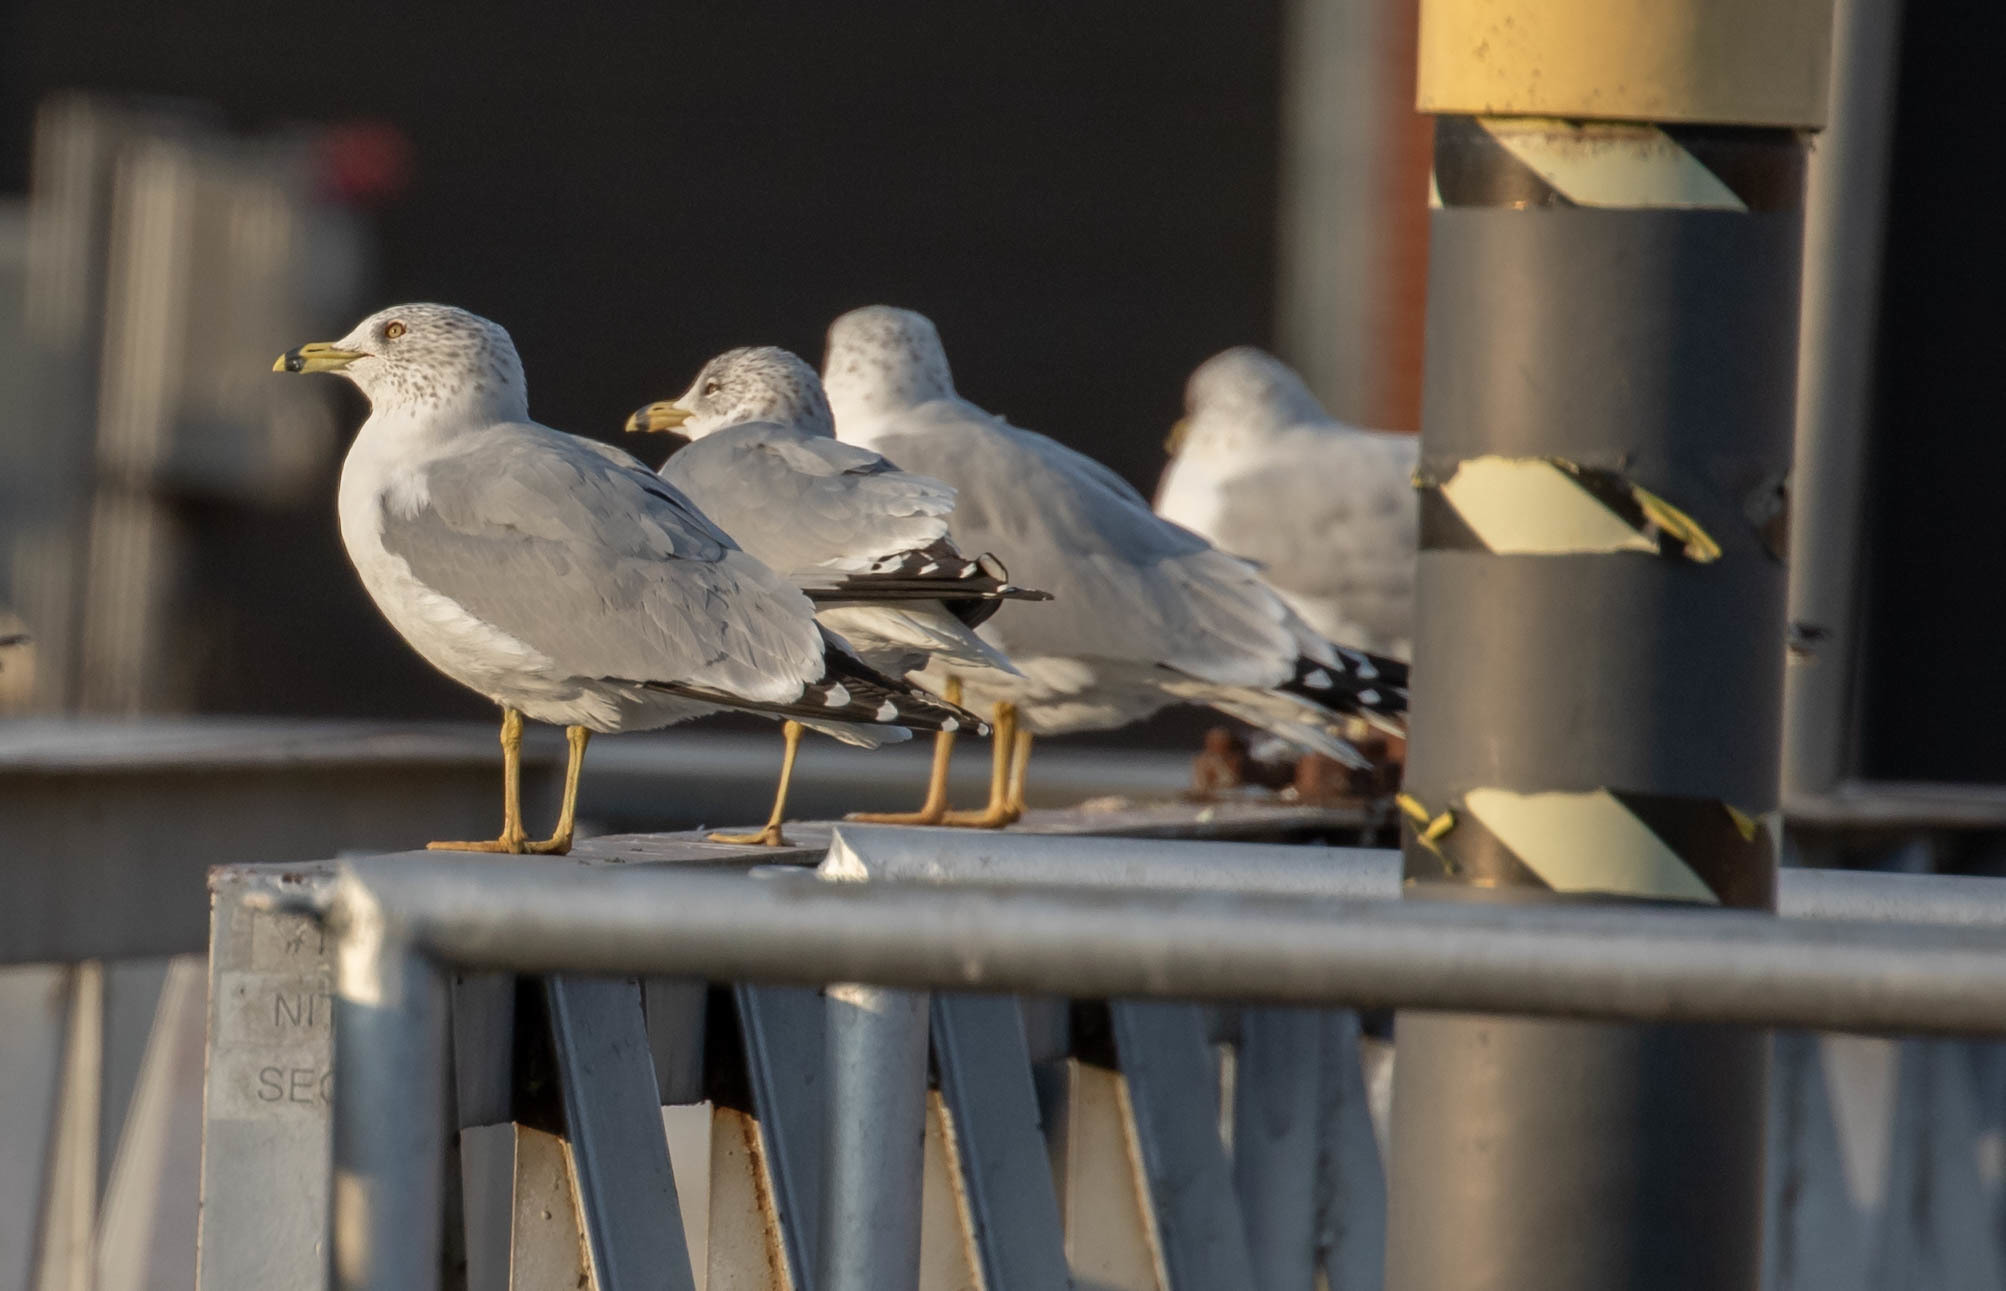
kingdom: Animalia
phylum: Chordata
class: Aves
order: Charadriiformes
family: Laridae
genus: Larus
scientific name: Larus delawarensis
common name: Ring-billed gull
